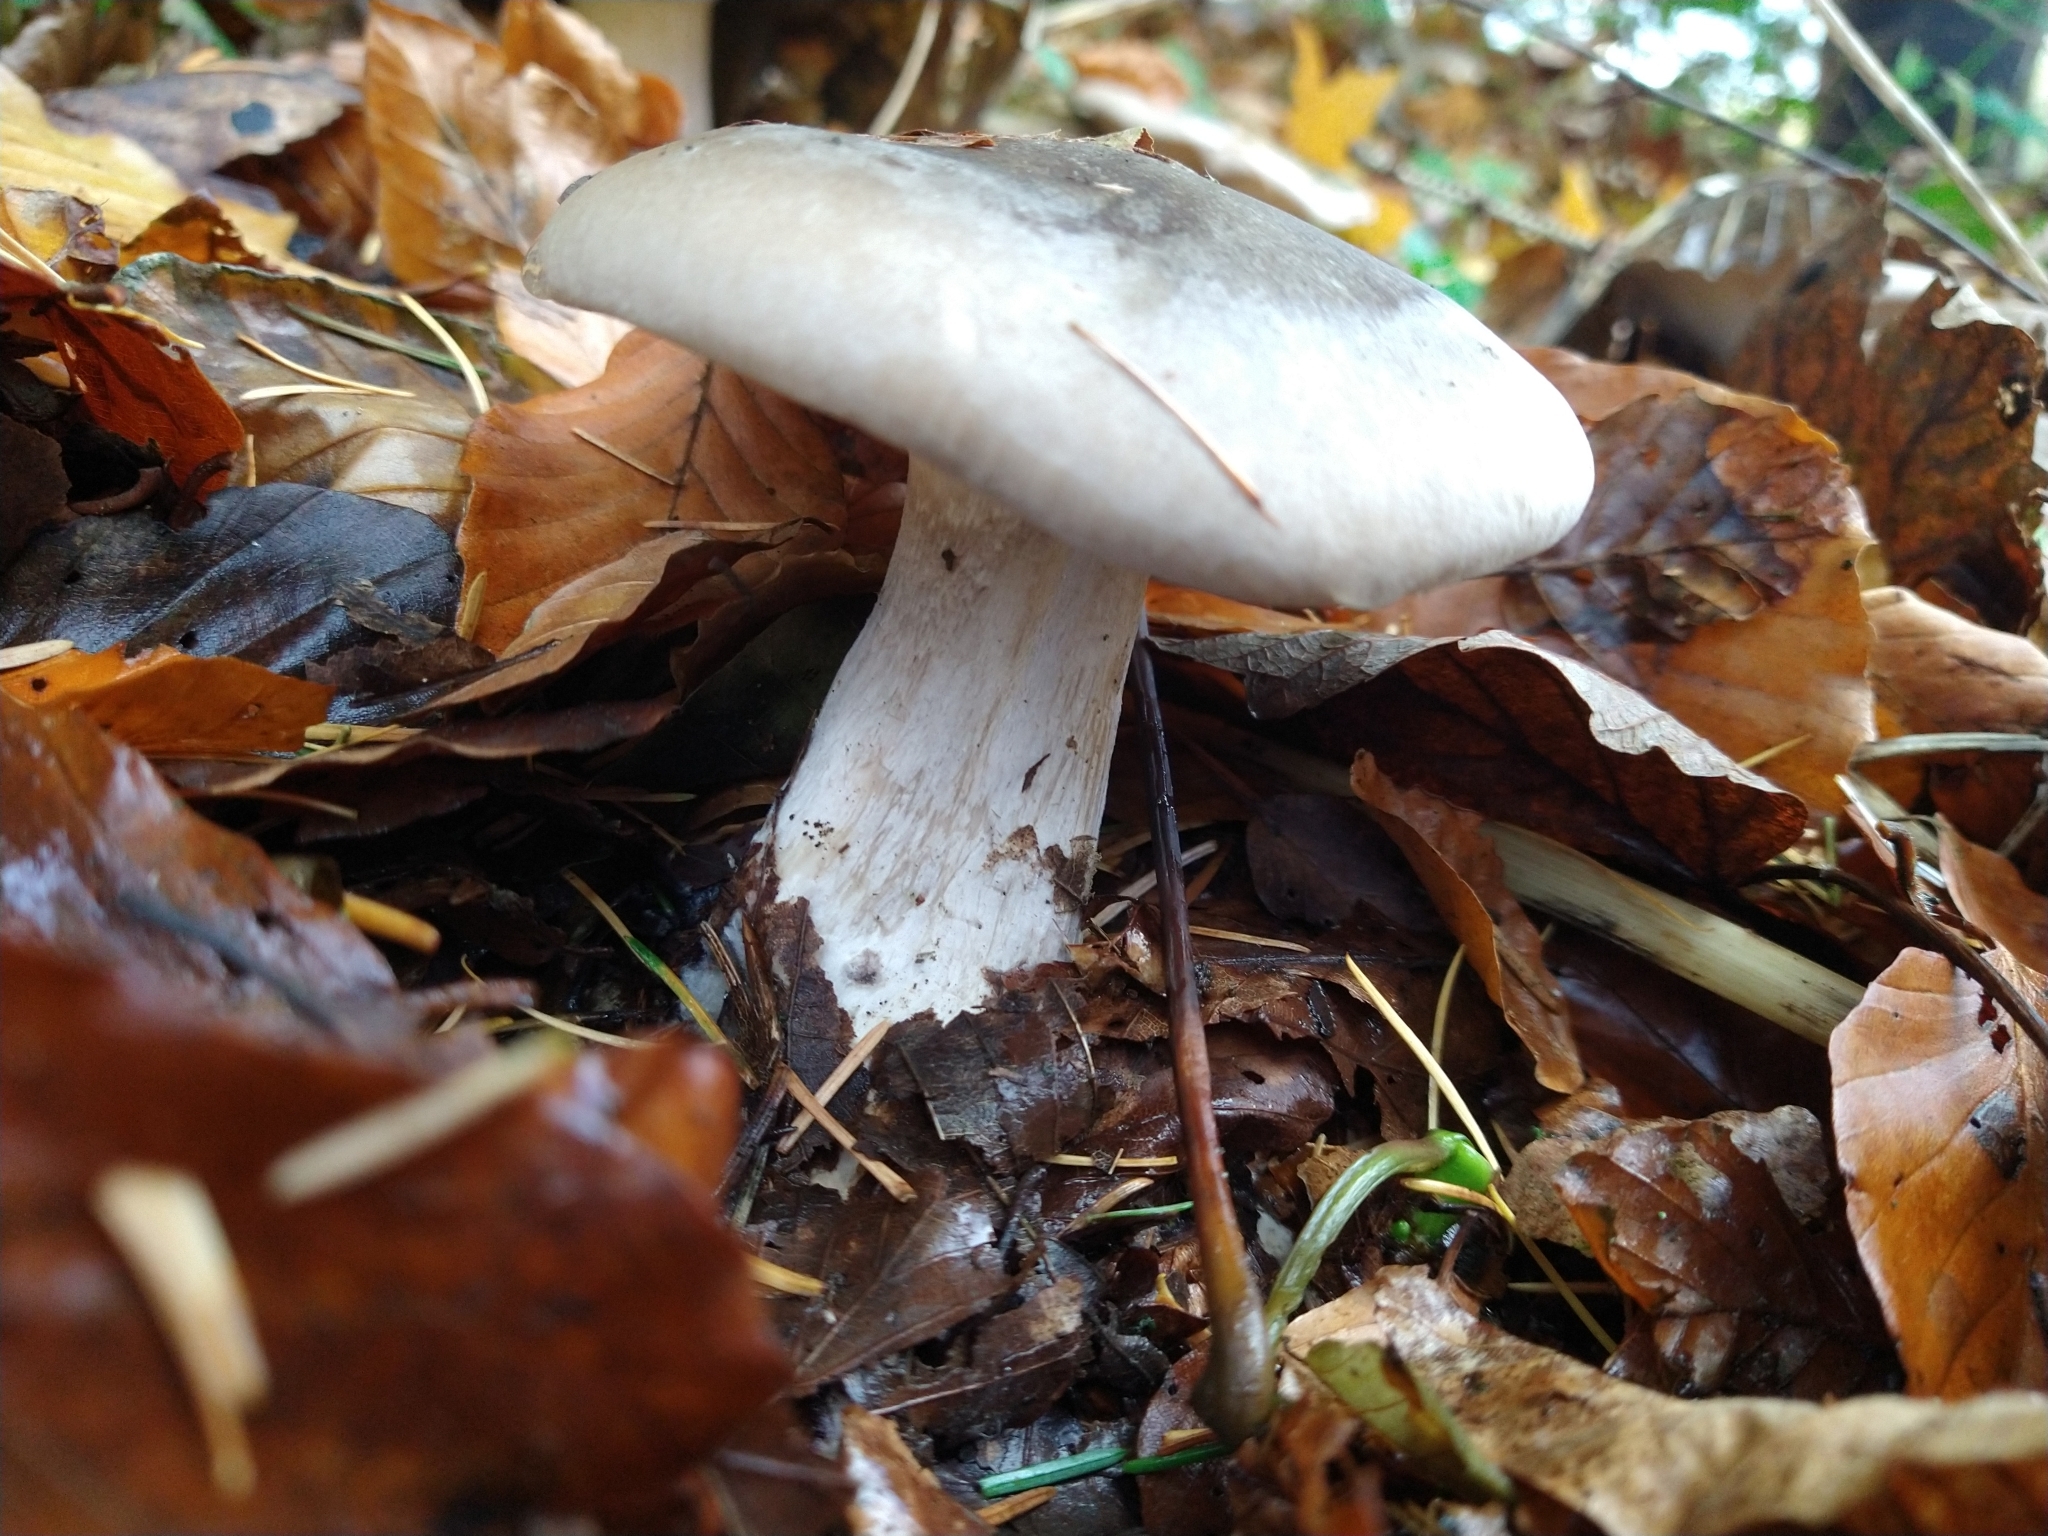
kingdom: Fungi
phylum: Basidiomycota
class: Agaricomycetes
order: Agaricales
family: Tricholomataceae
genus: Clitocybe
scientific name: Clitocybe nebularis
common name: Clouded agaric
